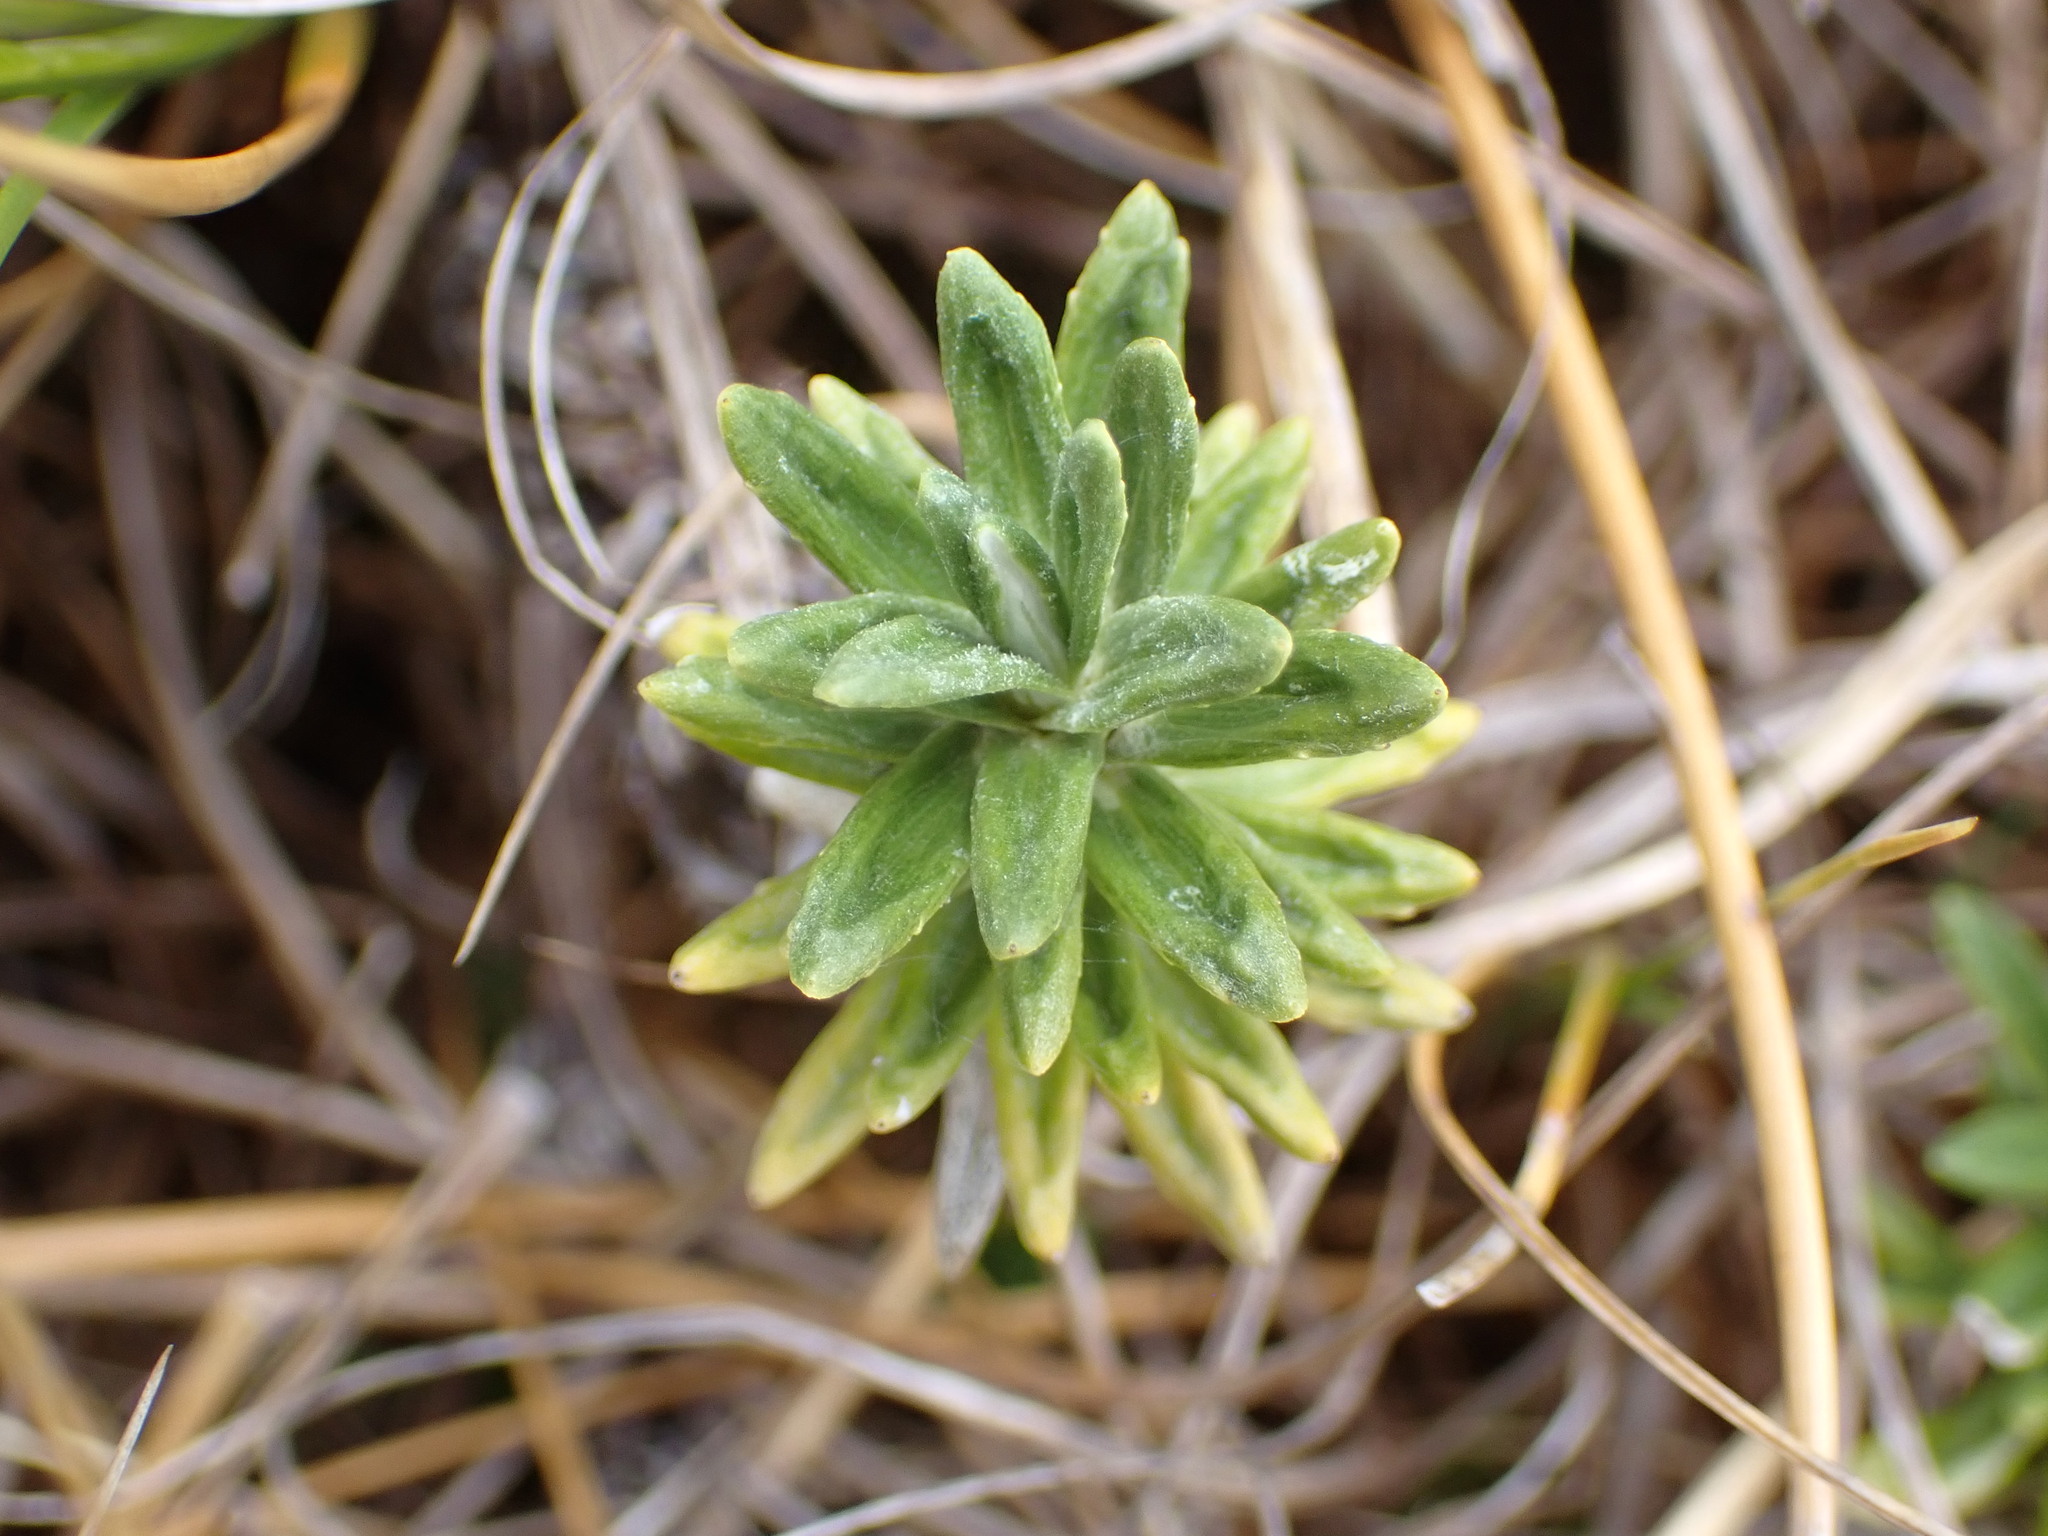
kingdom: Plantae
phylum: Tracheophyta
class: Magnoliopsida
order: Asterales
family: Asteraceae
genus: Celmisia
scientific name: Celmisia walkeri
